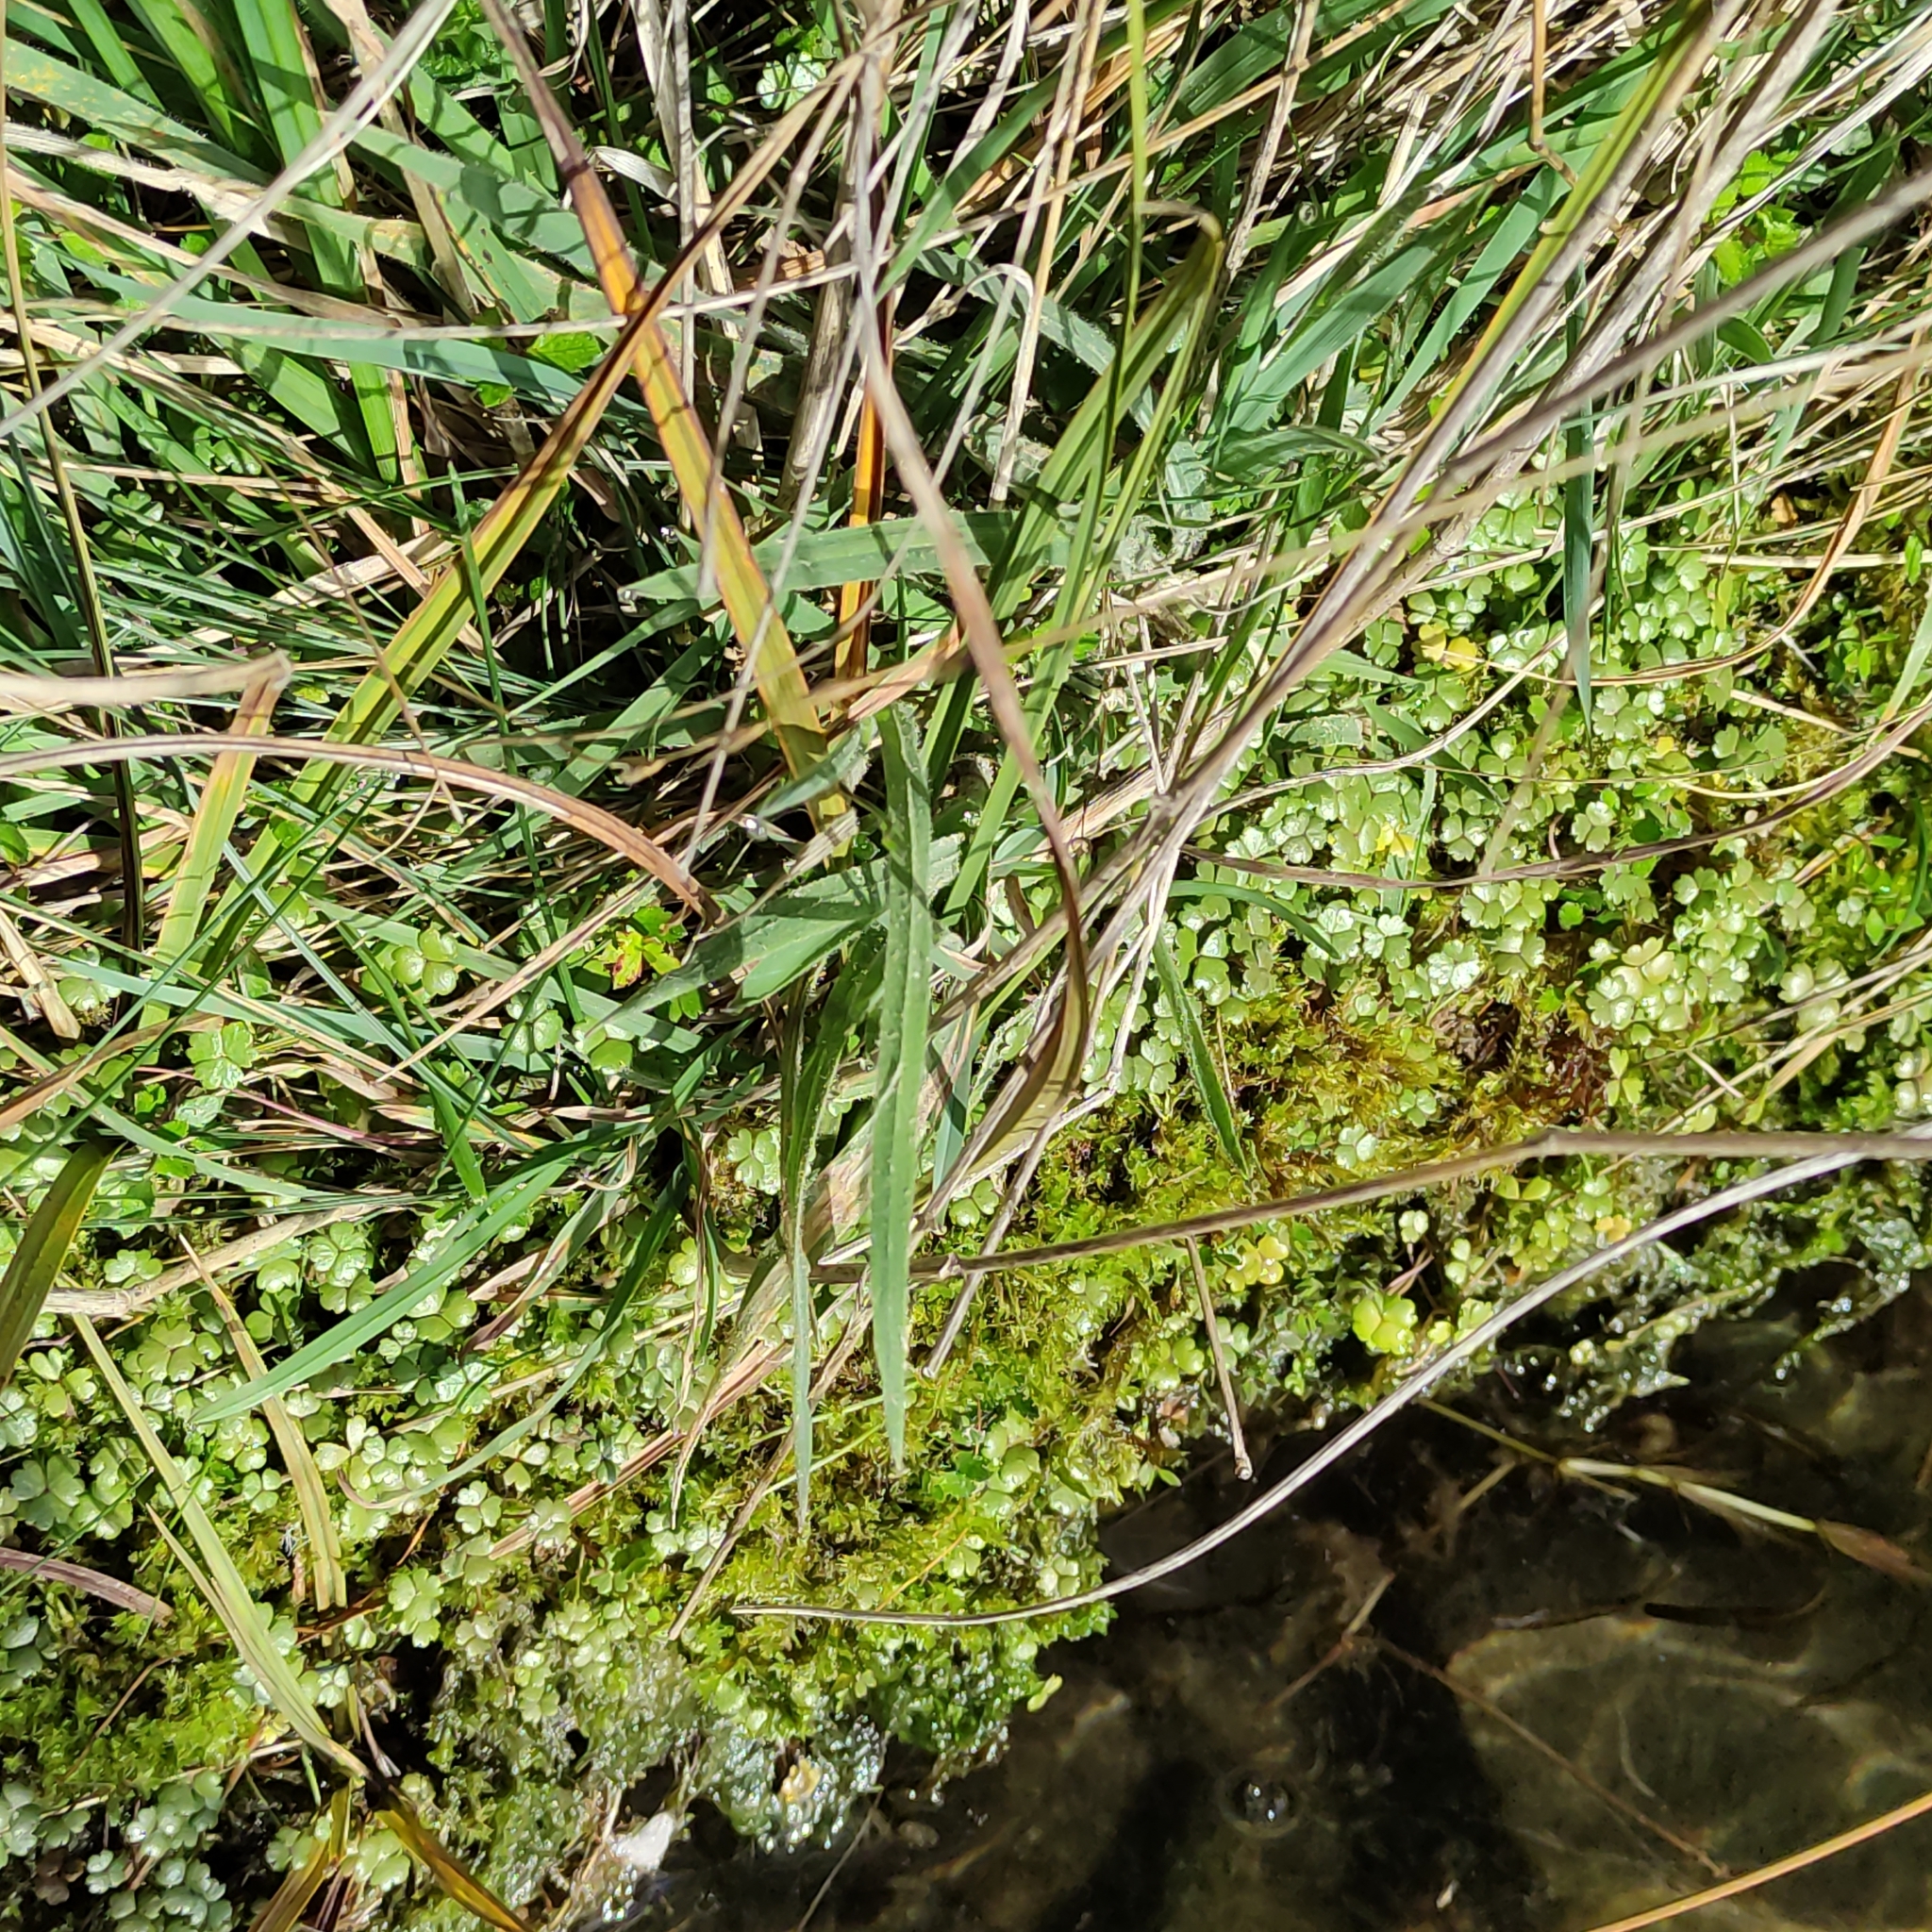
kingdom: Plantae
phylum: Tracheophyta
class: Magnoliopsida
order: Apiales
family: Araliaceae
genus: Hydrocotyle
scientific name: Hydrocotyle sulcata
